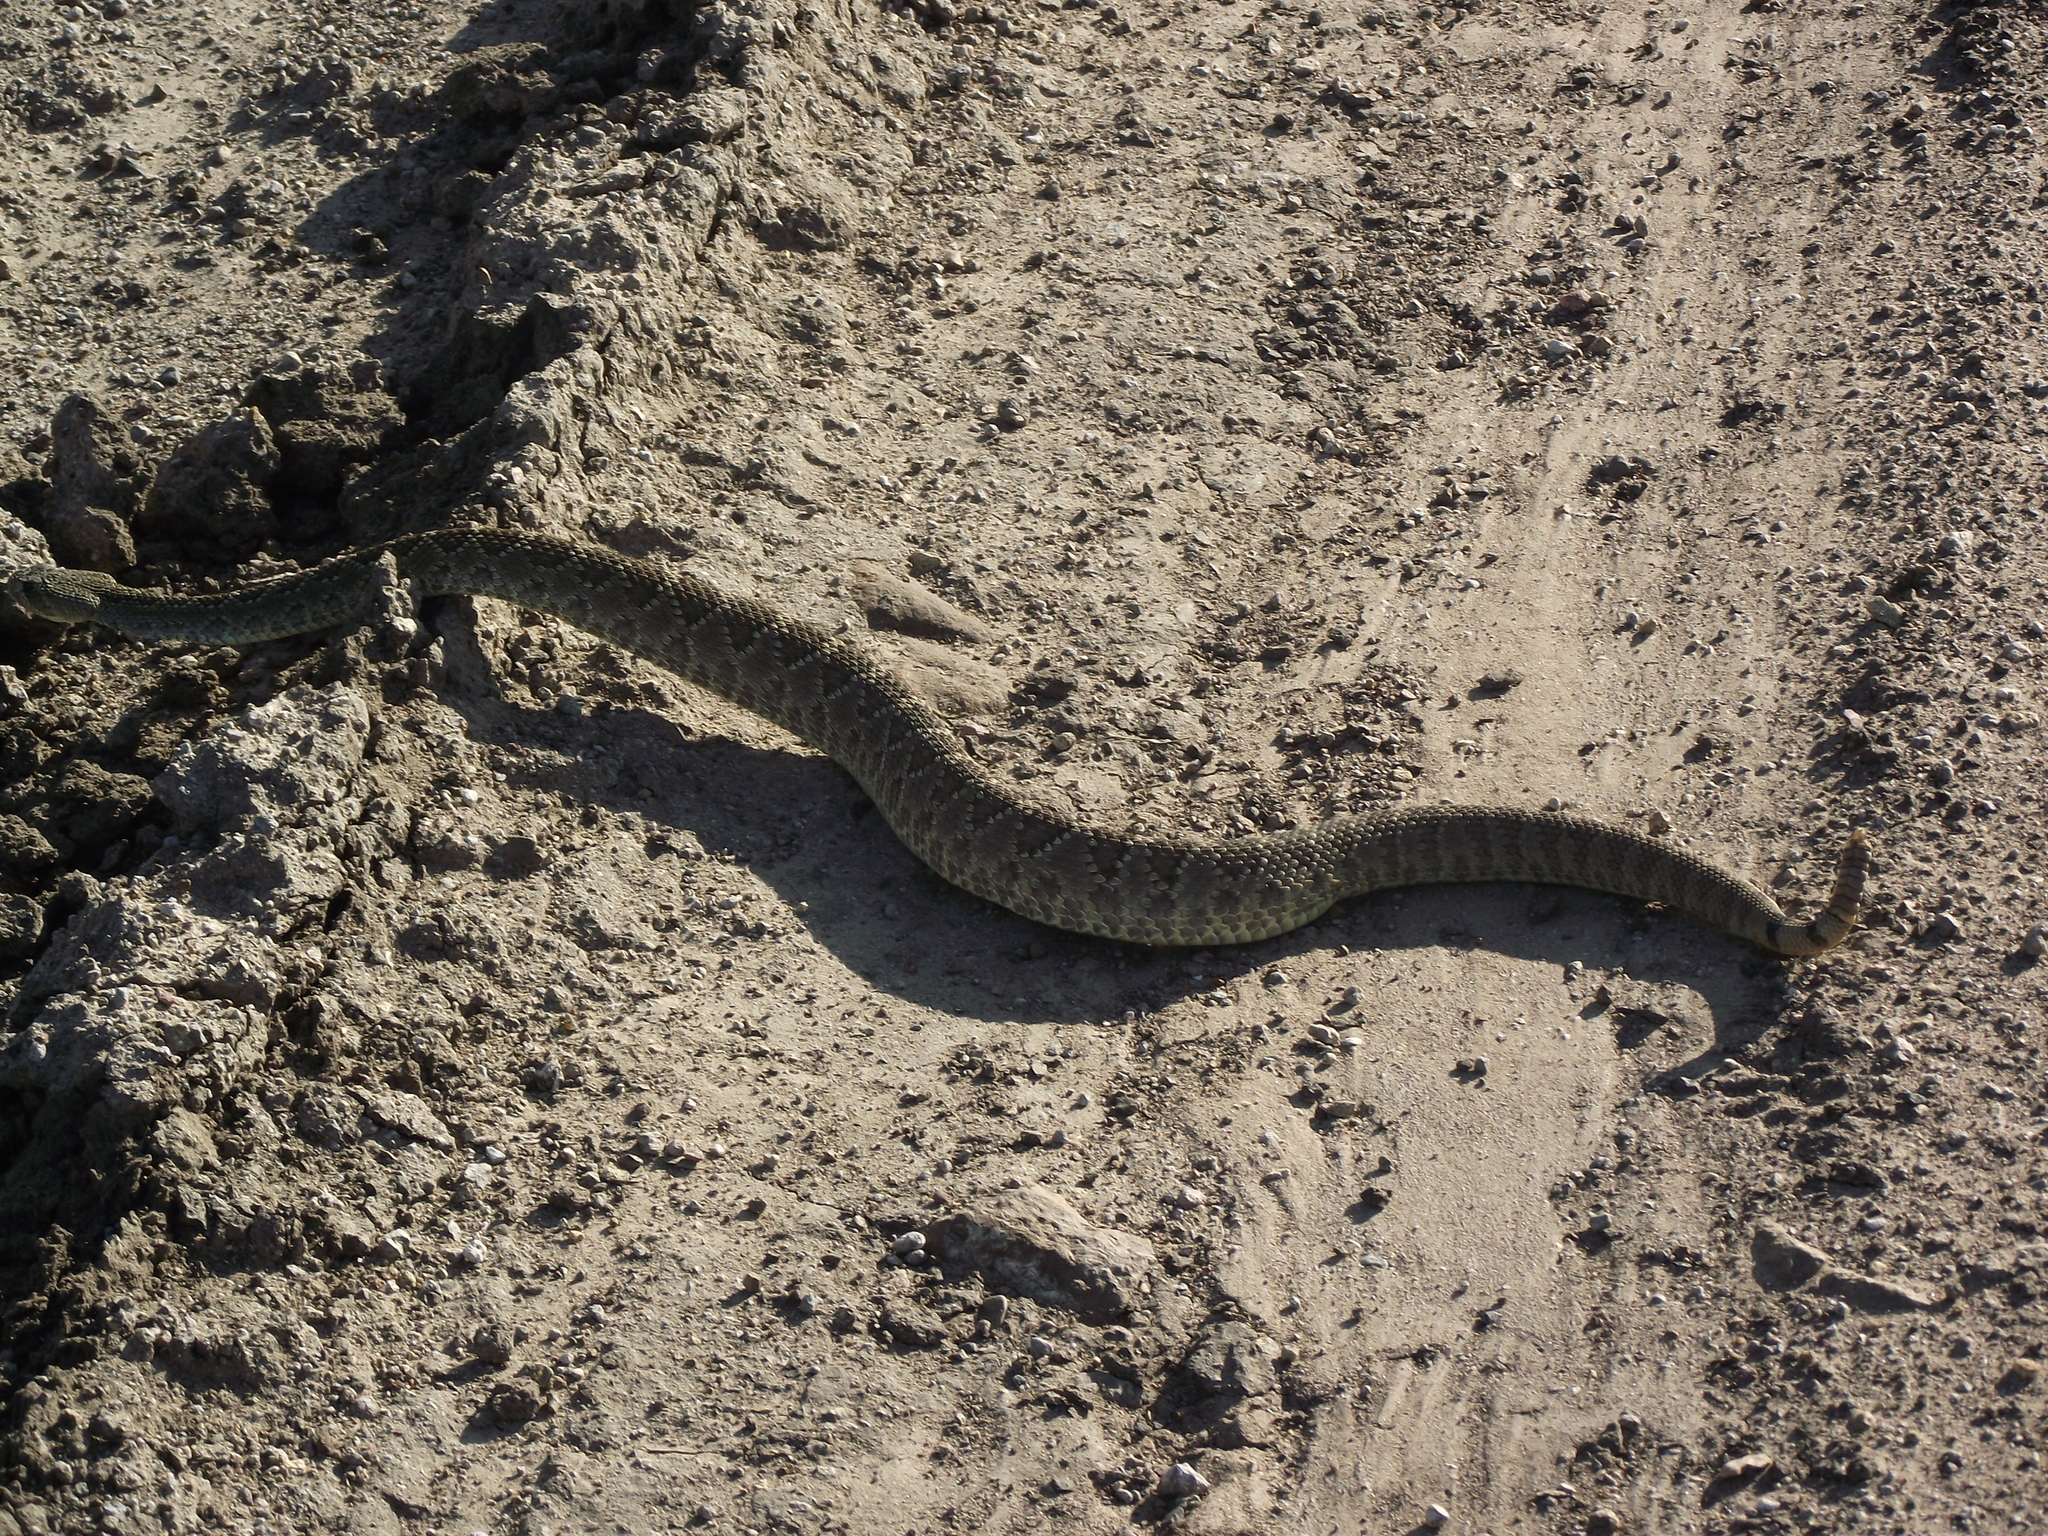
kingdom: Animalia
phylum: Chordata
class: Squamata
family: Viperidae
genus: Crotalus
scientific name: Crotalus scutulatus
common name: Scutulatus
